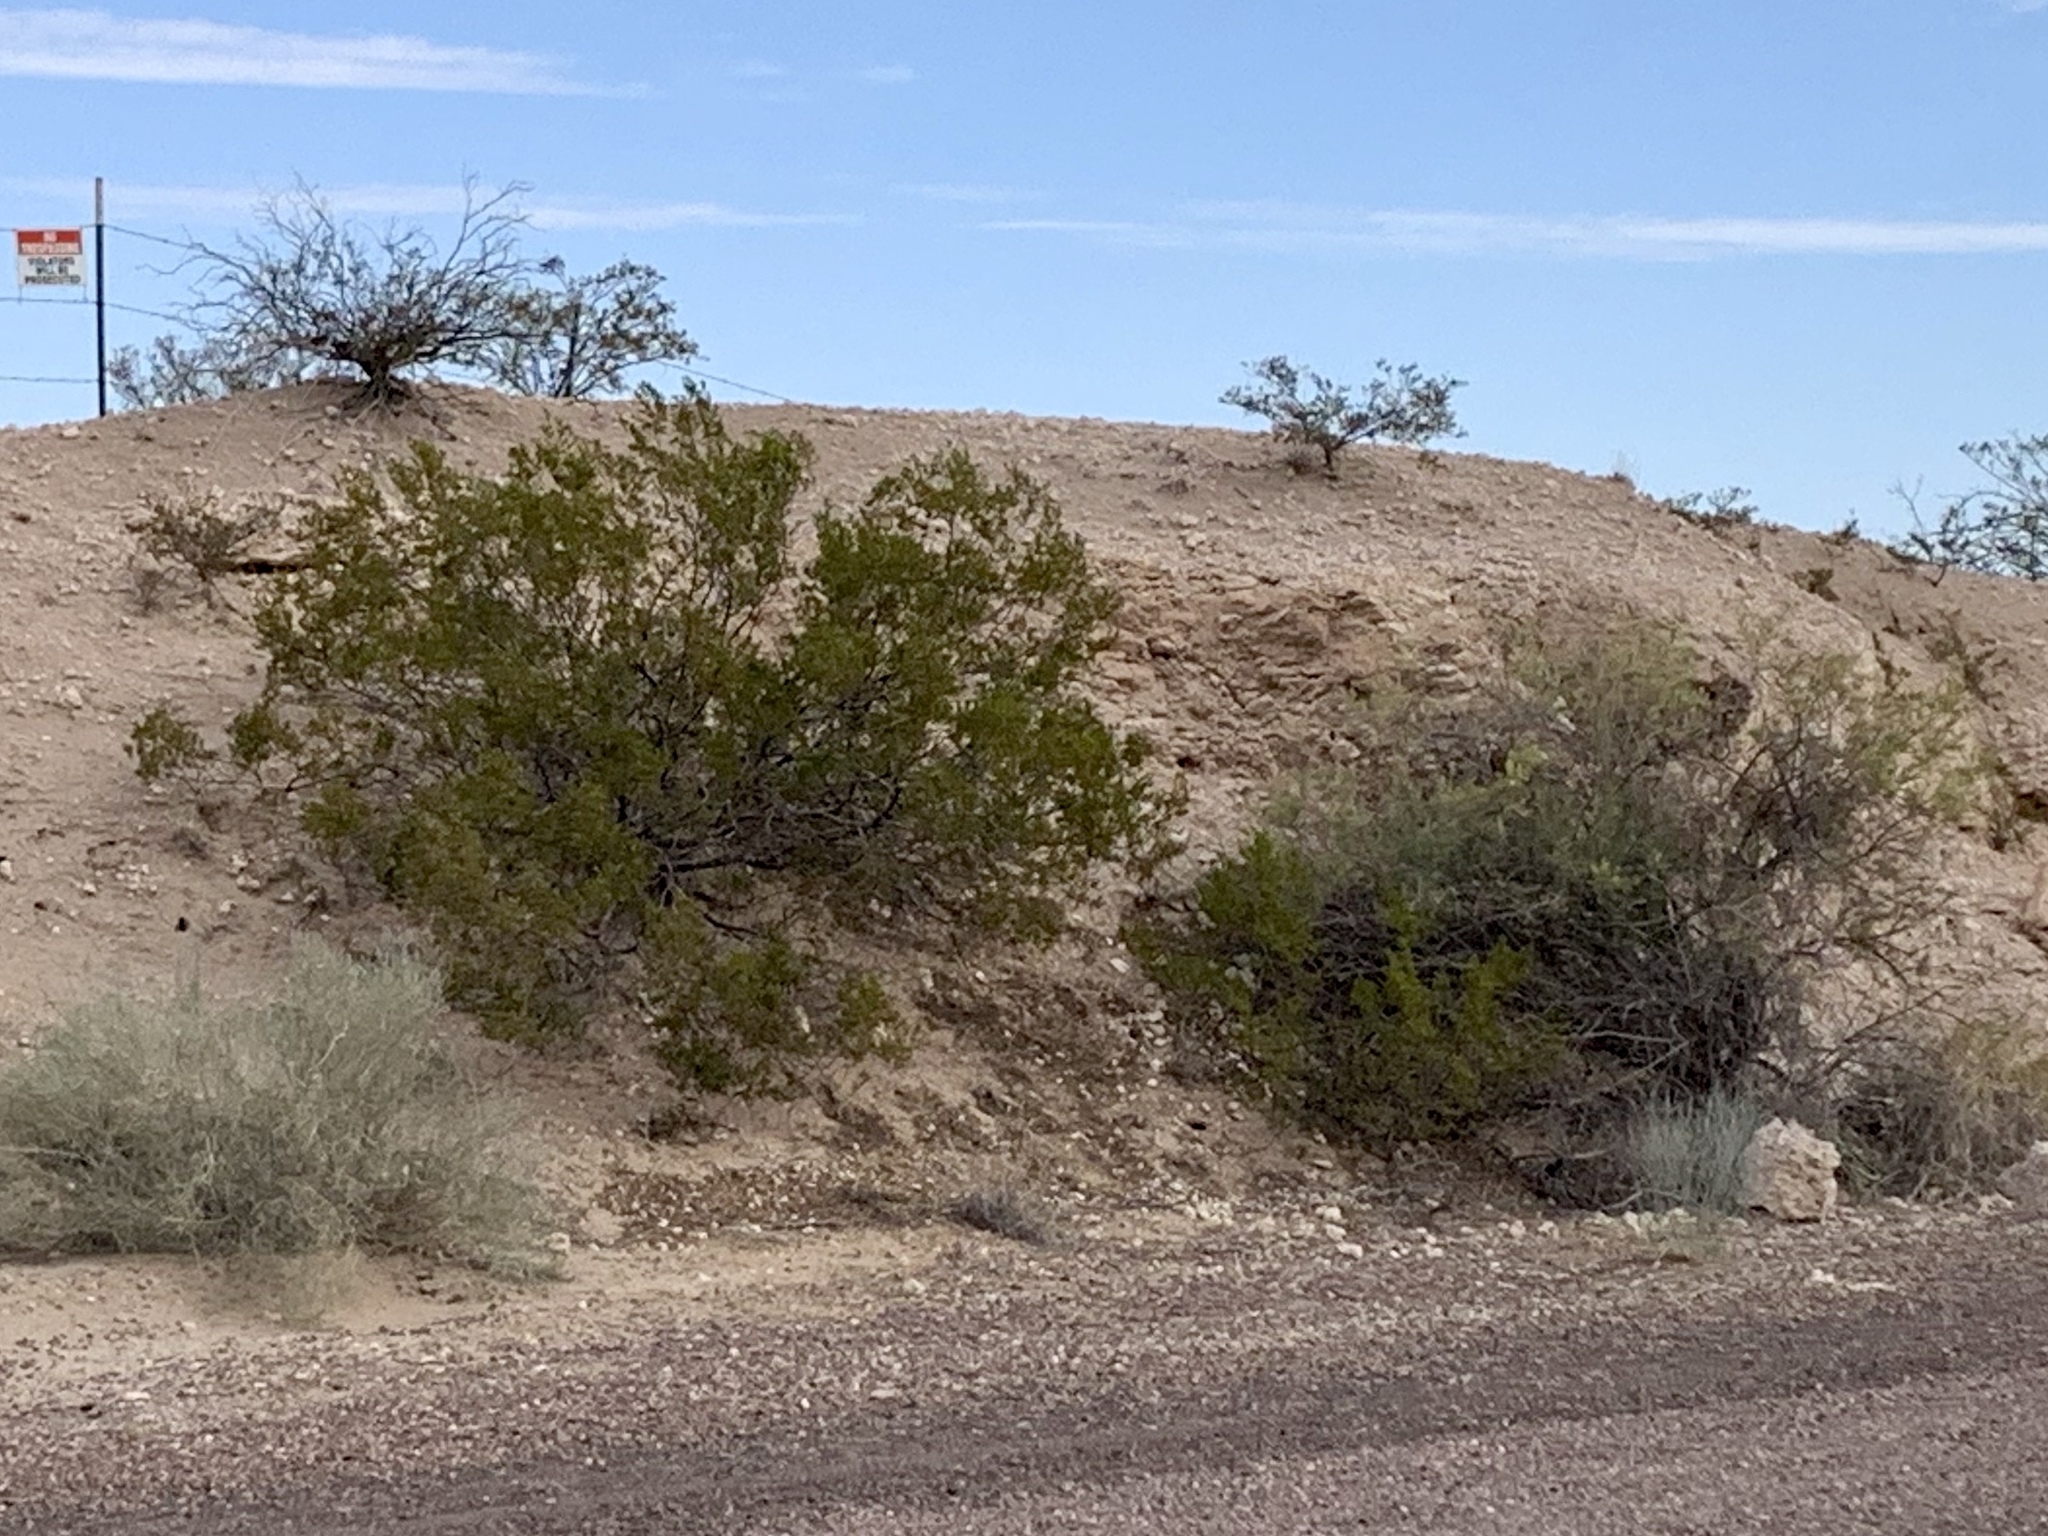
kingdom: Plantae
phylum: Tracheophyta
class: Magnoliopsida
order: Zygophyllales
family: Zygophyllaceae
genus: Larrea
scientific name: Larrea tridentata
